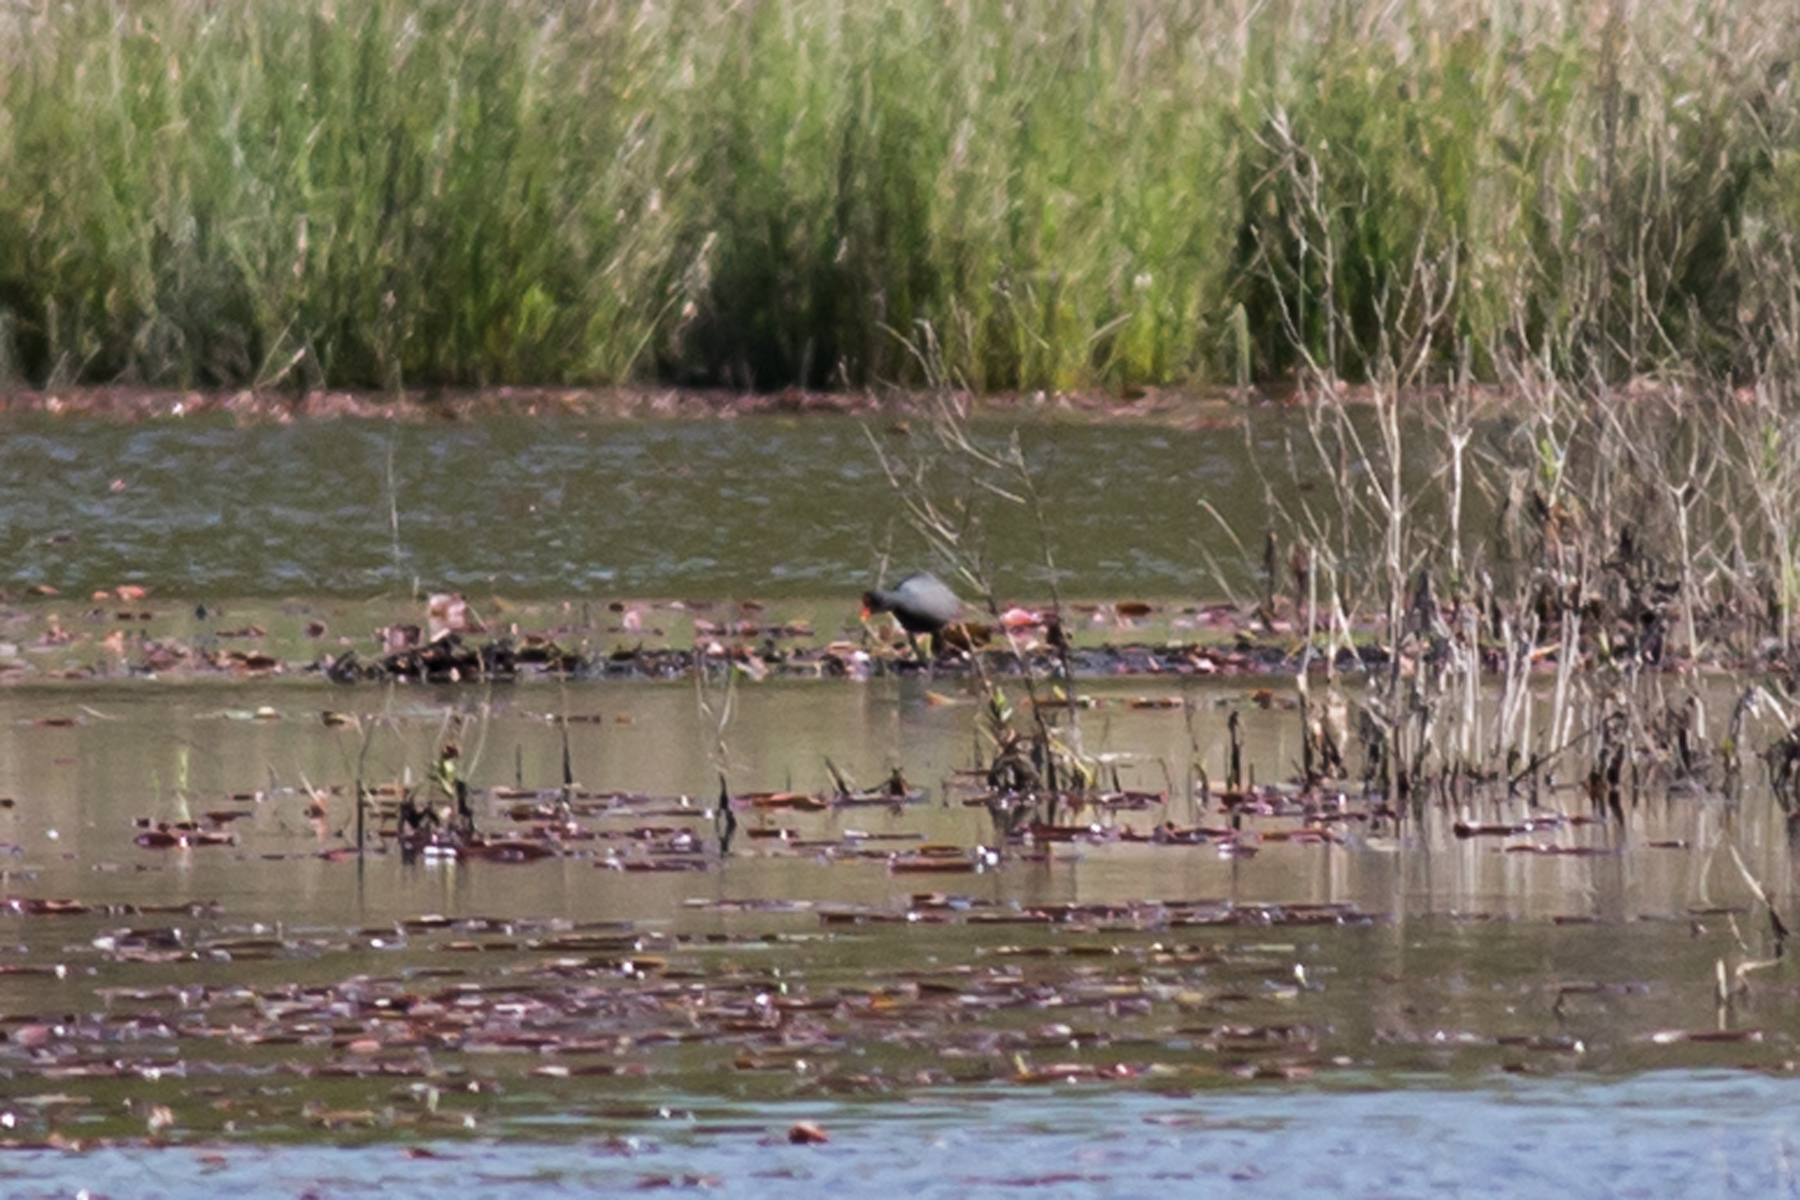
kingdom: Animalia
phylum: Chordata
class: Aves
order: Gruiformes
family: Rallidae
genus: Gallinula
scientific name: Gallinula chloropus
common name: Common moorhen
